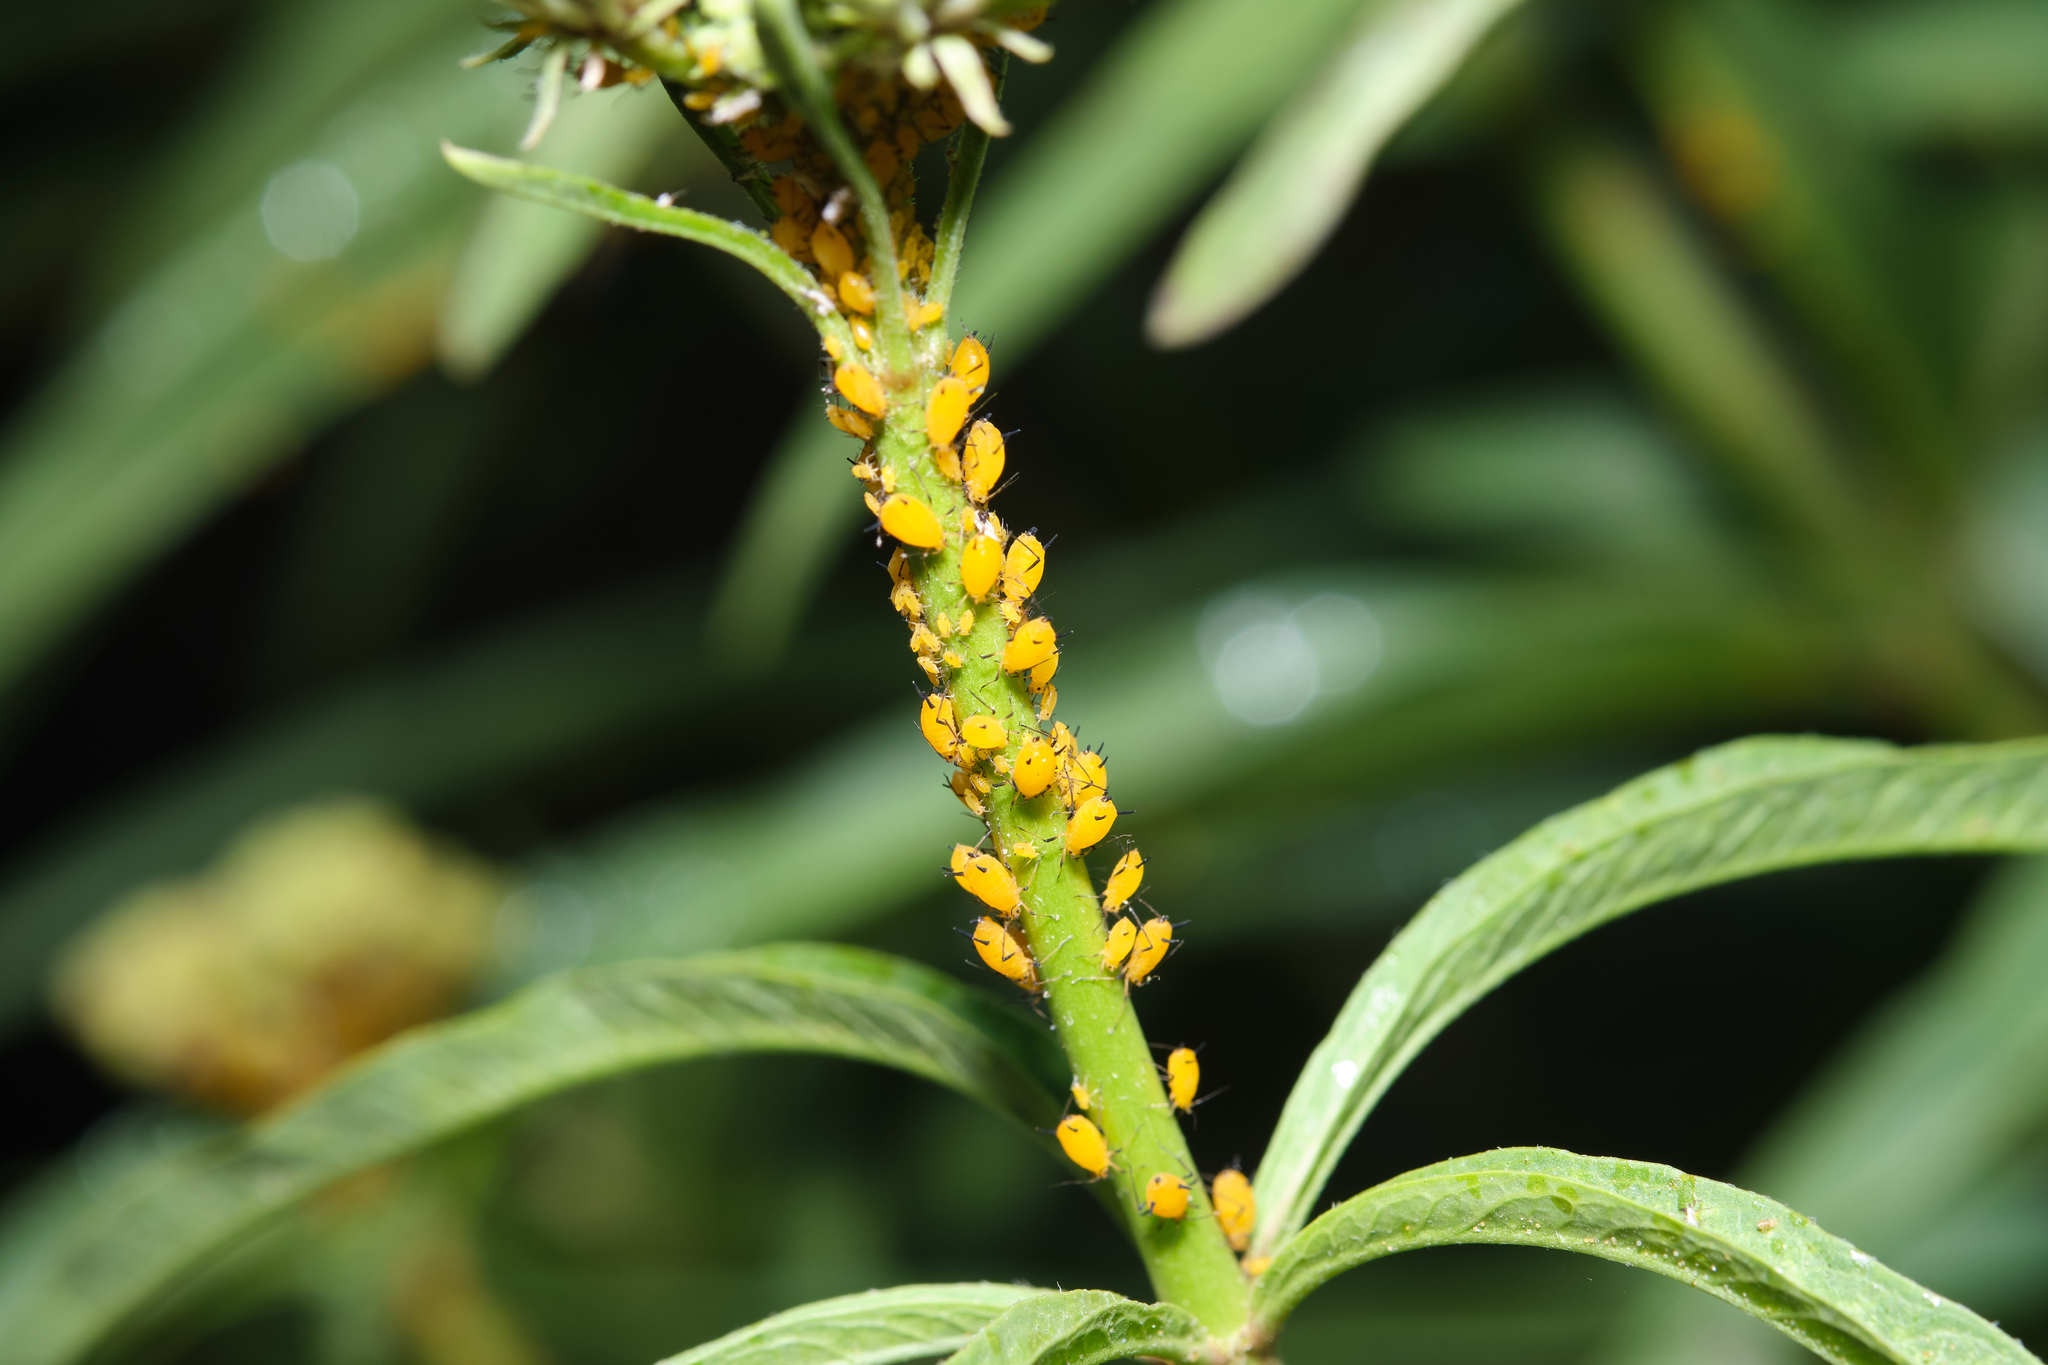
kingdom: Animalia
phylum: Arthropoda
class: Insecta
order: Hemiptera
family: Aphididae
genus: Aphis
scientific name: Aphis nerii
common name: Oleander aphid
